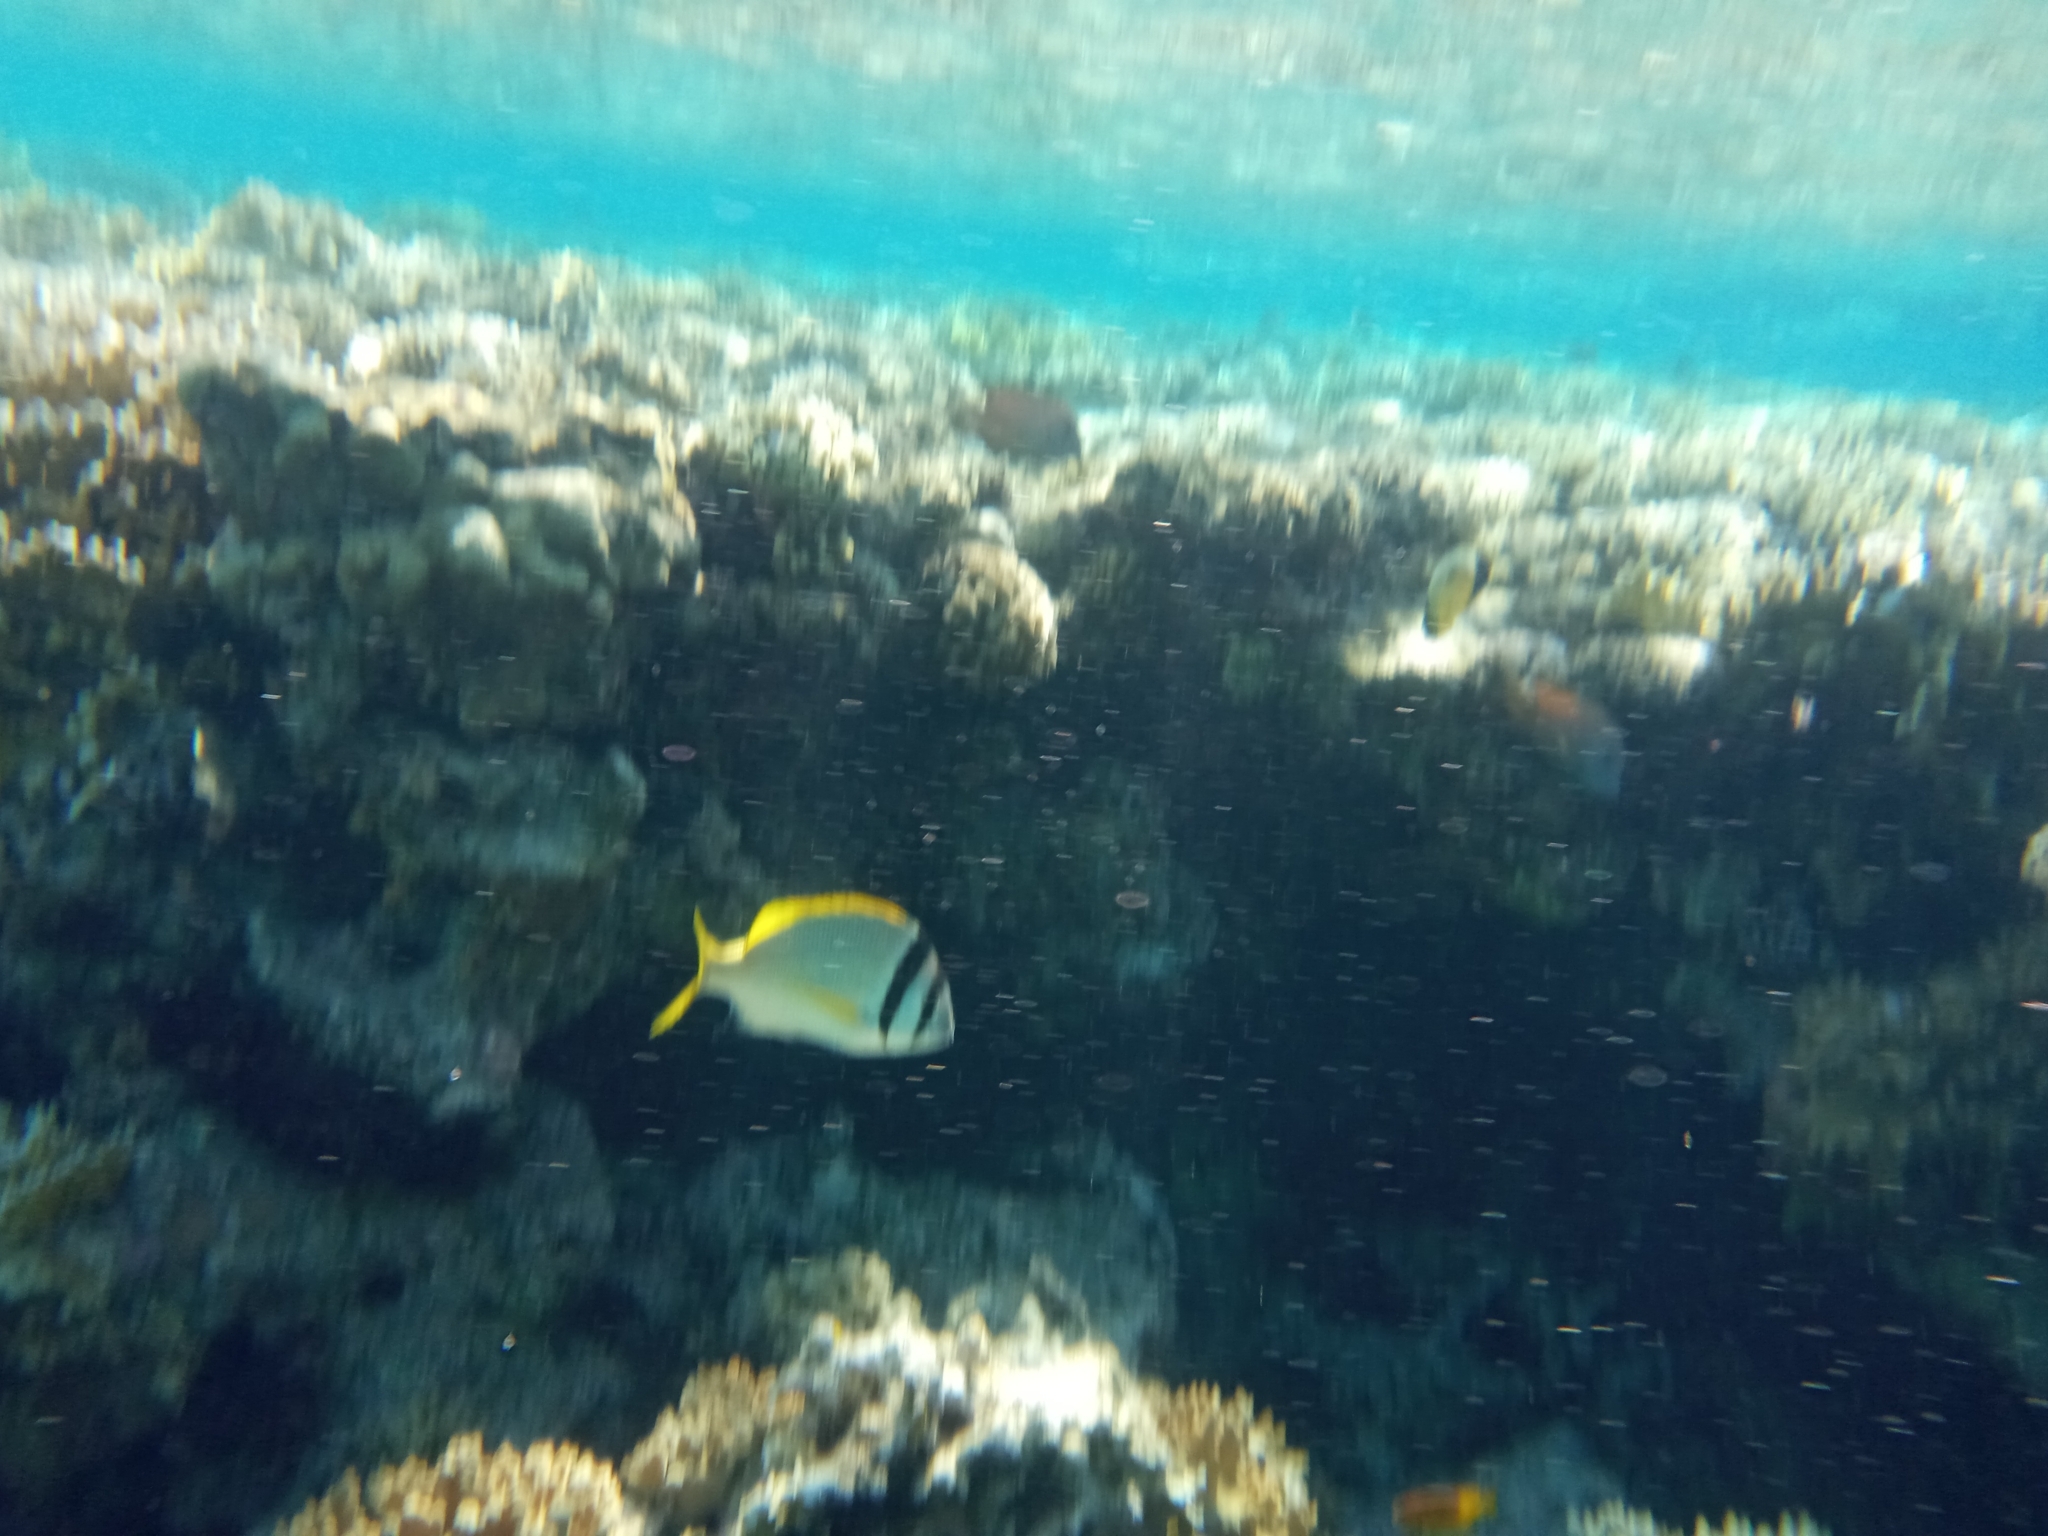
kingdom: Animalia
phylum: Chordata
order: Perciformes
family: Sparidae
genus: Acanthopagrus
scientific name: Acanthopagrus bifasciatus
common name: Twobar seabream
